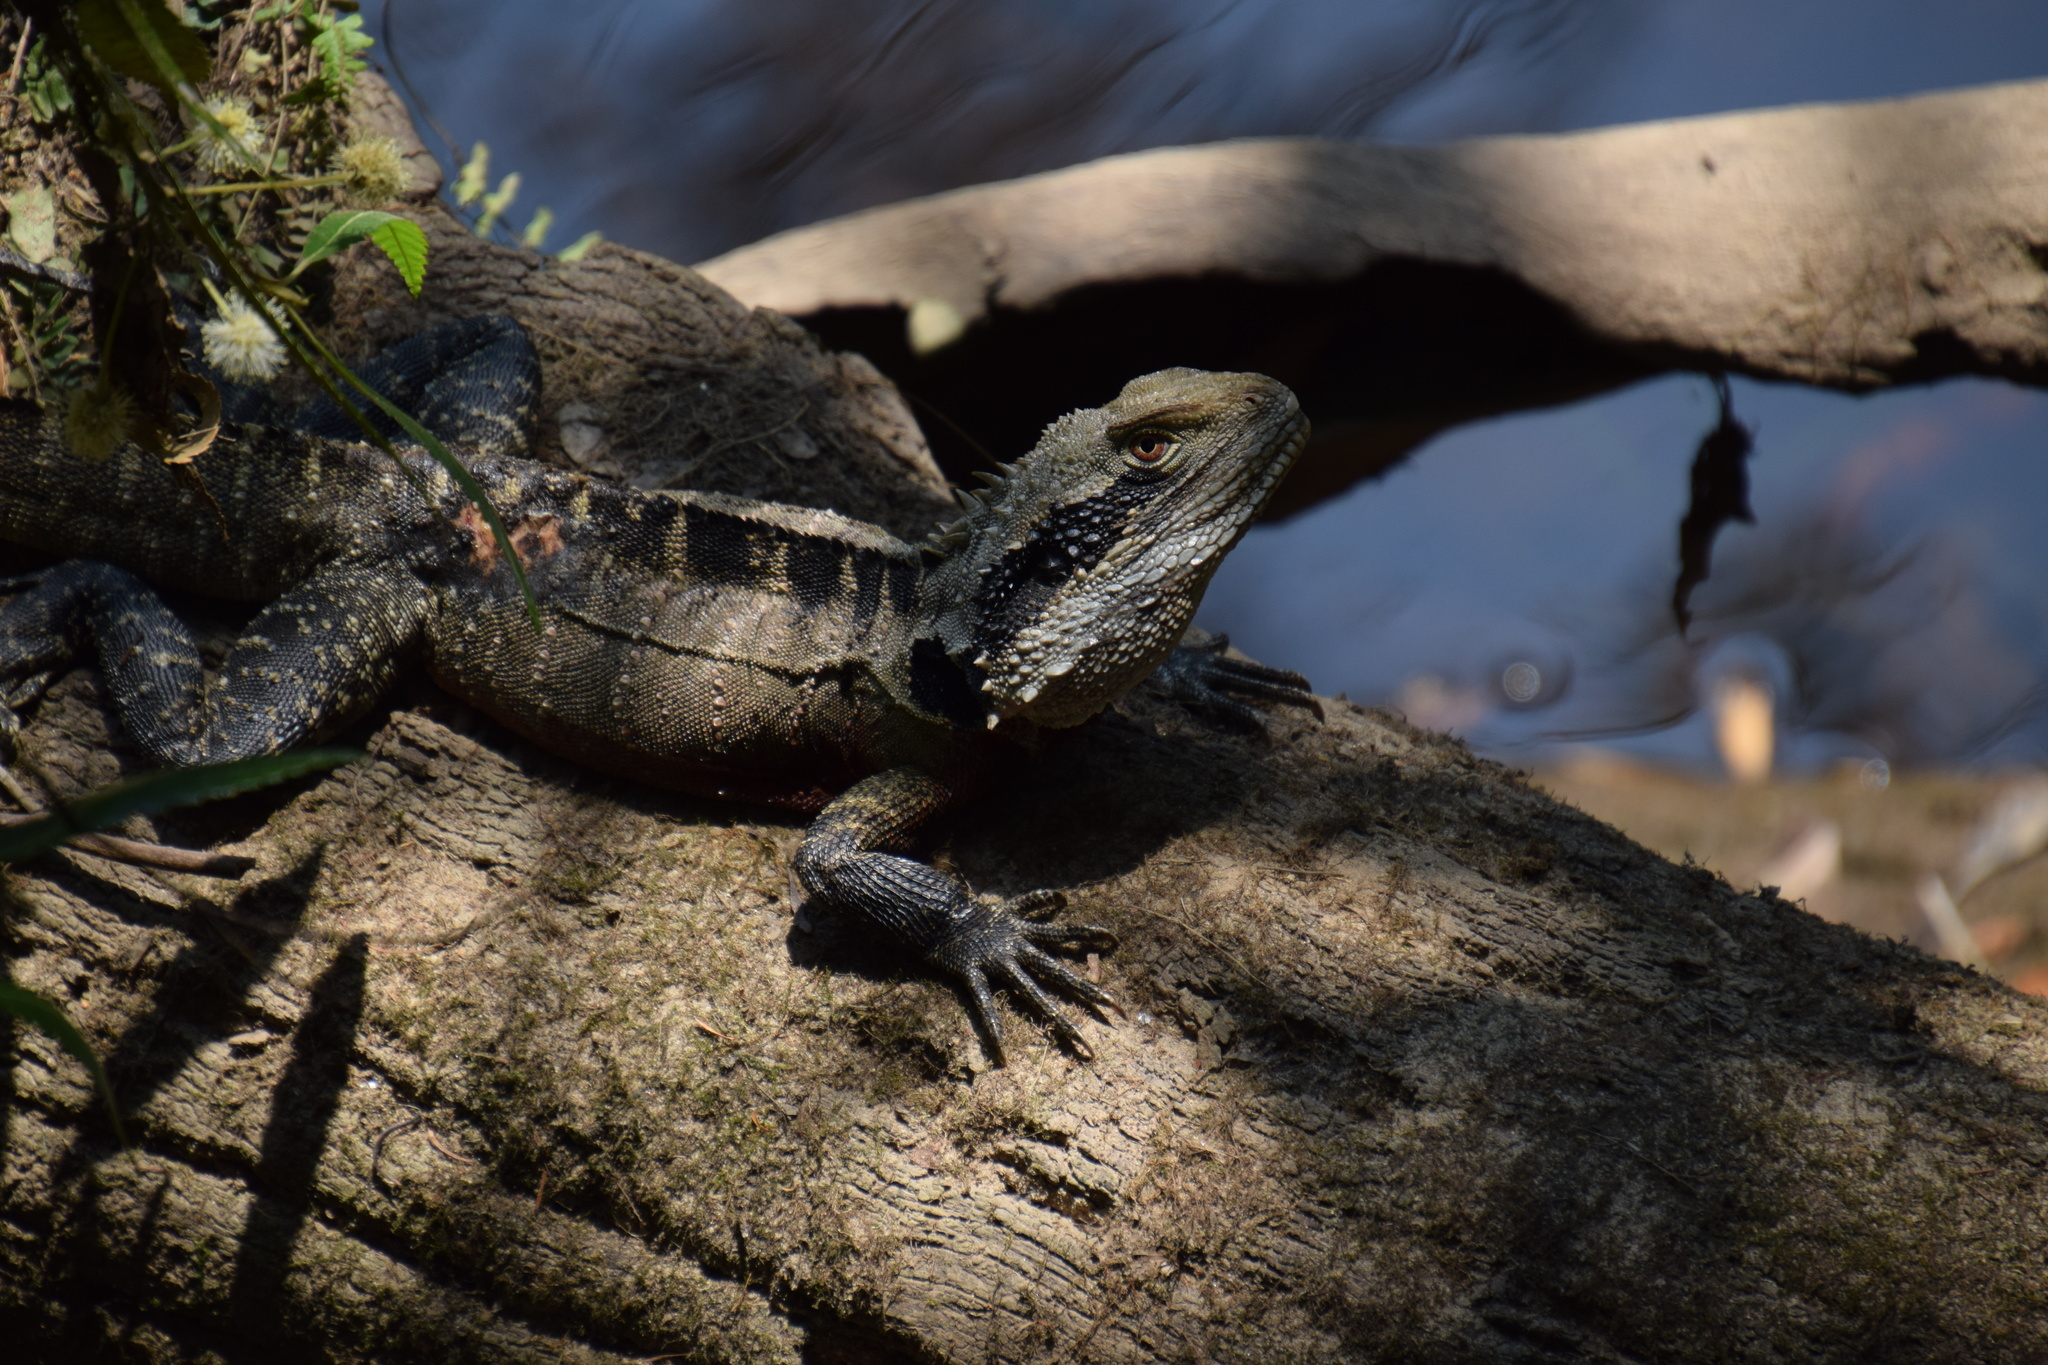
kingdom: Animalia
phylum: Chordata
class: Squamata
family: Agamidae
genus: Intellagama
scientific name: Intellagama lesueurii
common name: Eastern water dragon
